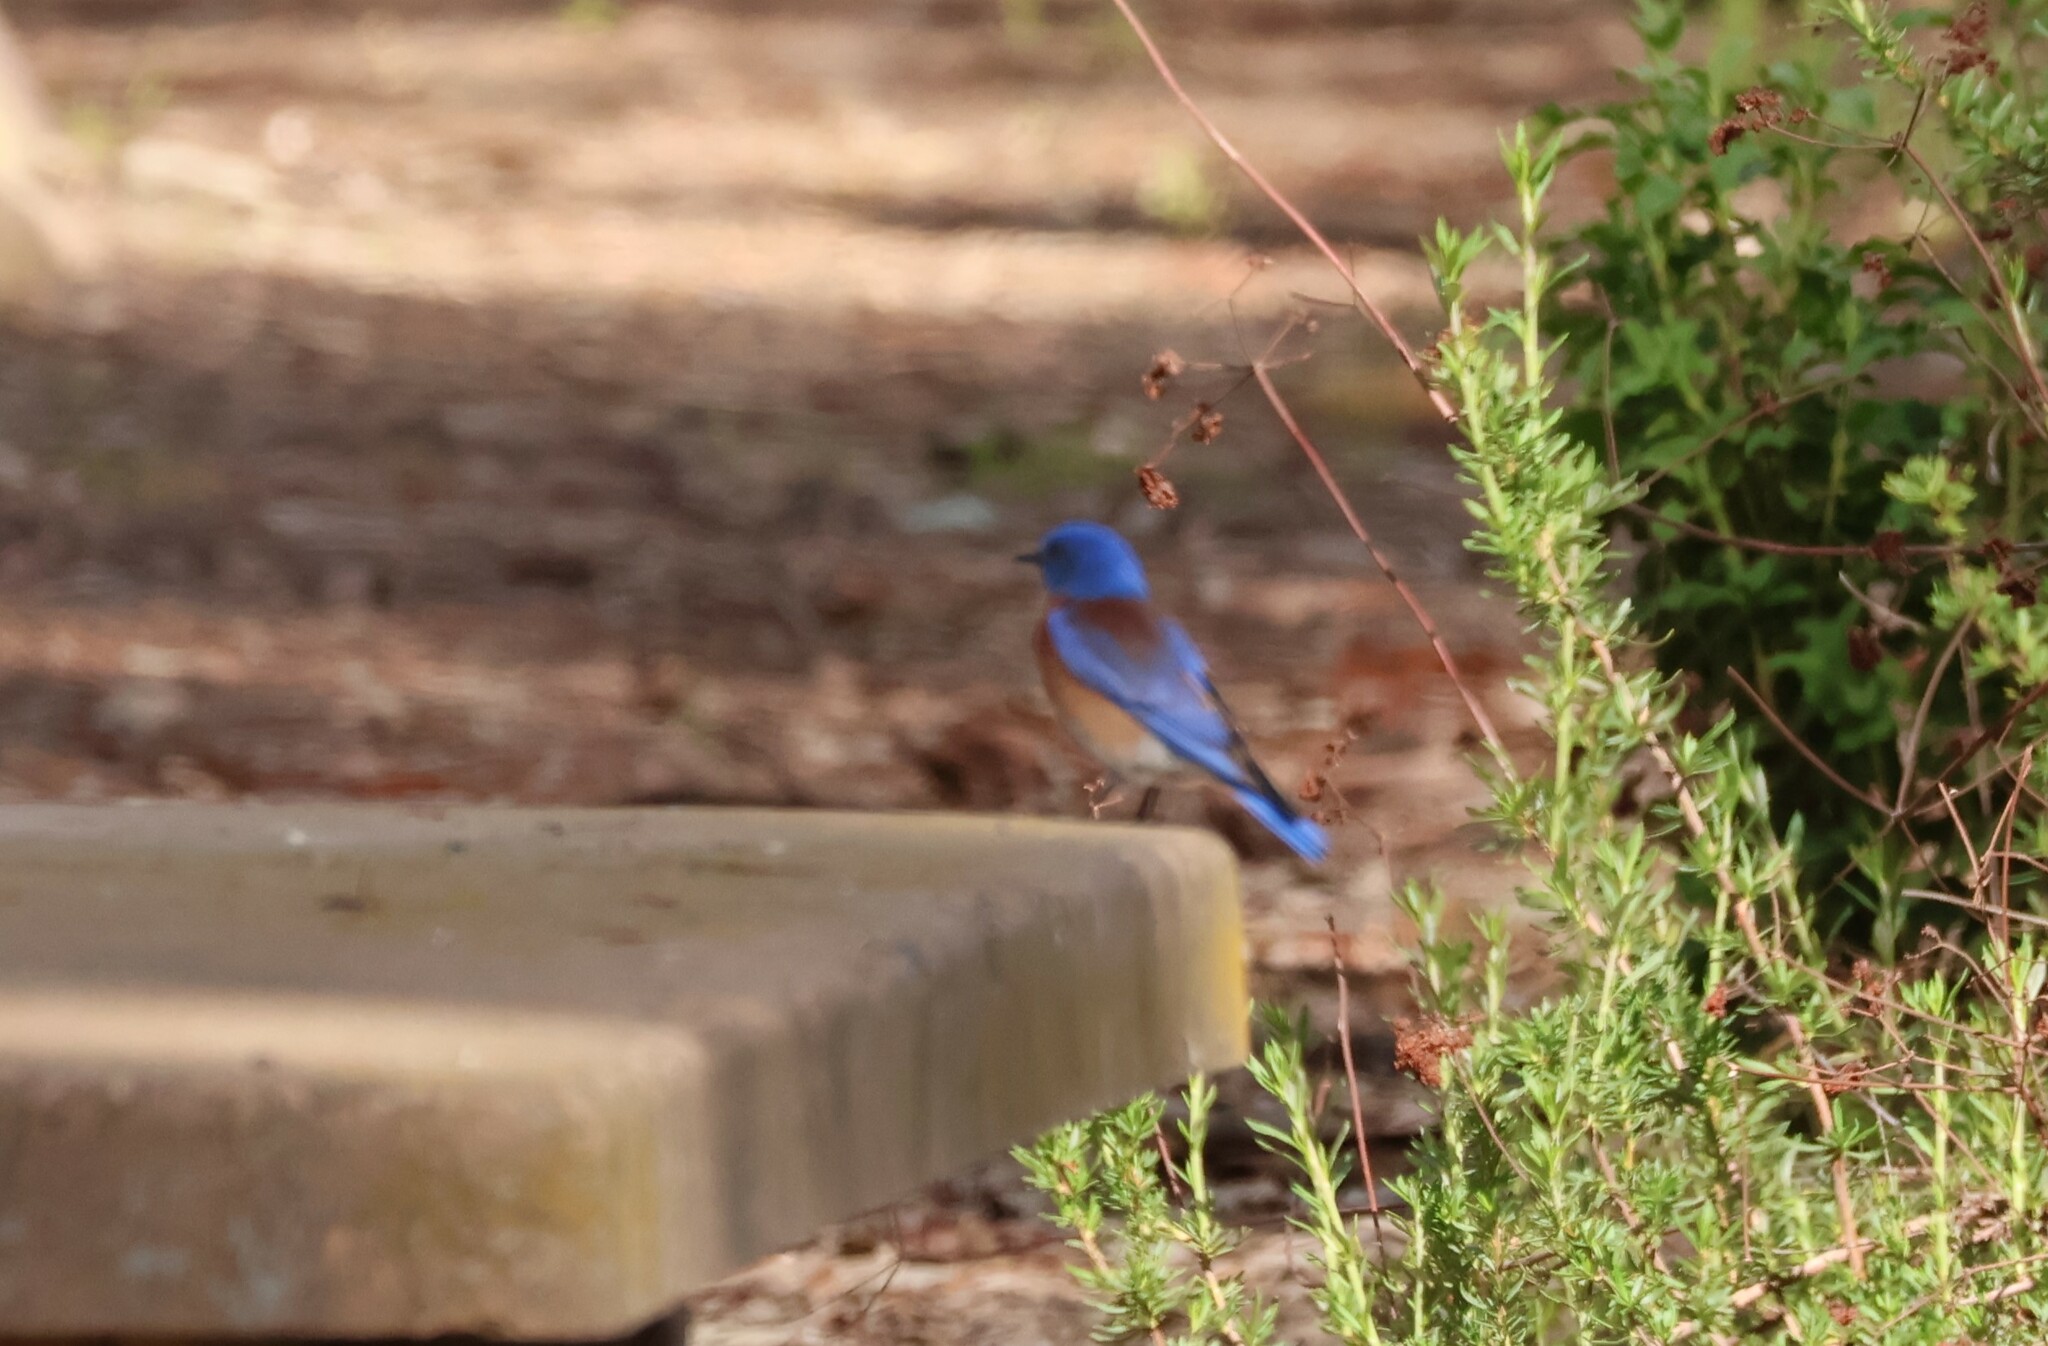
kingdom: Animalia
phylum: Chordata
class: Aves
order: Passeriformes
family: Turdidae
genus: Sialia
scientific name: Sialia mexicana
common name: Western bluebird
